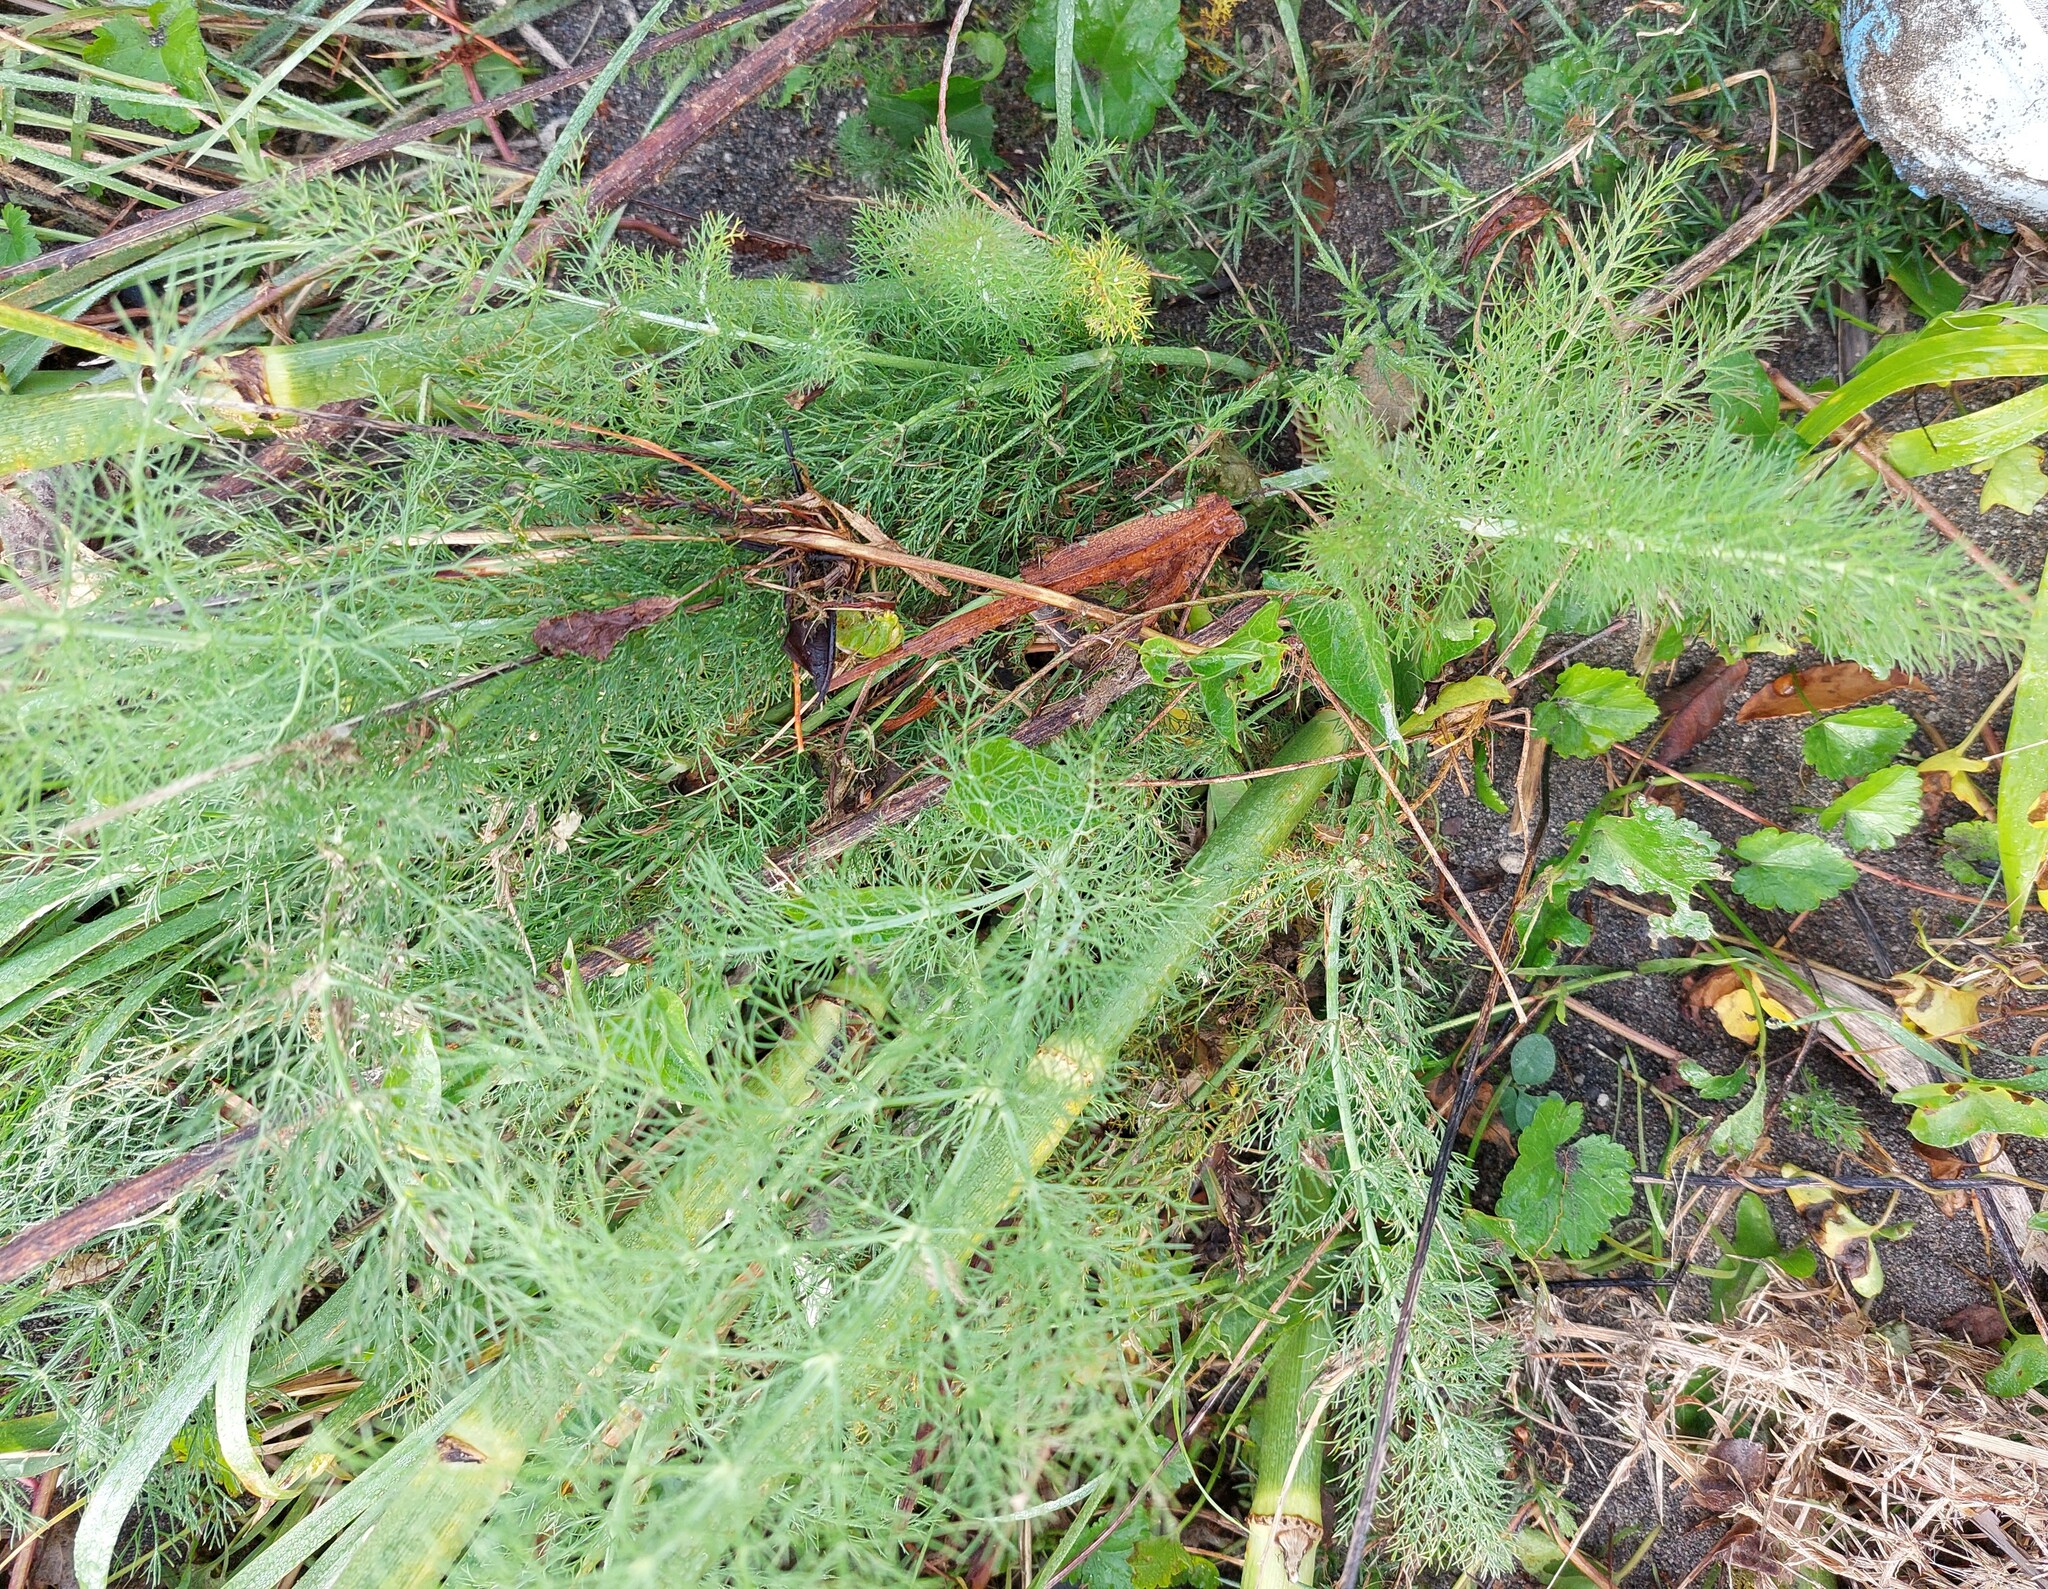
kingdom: Plantae
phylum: Tracheophyta
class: Magnoliopsida
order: Apiales
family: Apiaceae
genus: Foeniculum
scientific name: Foeniculum vulgare
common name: Fennel
